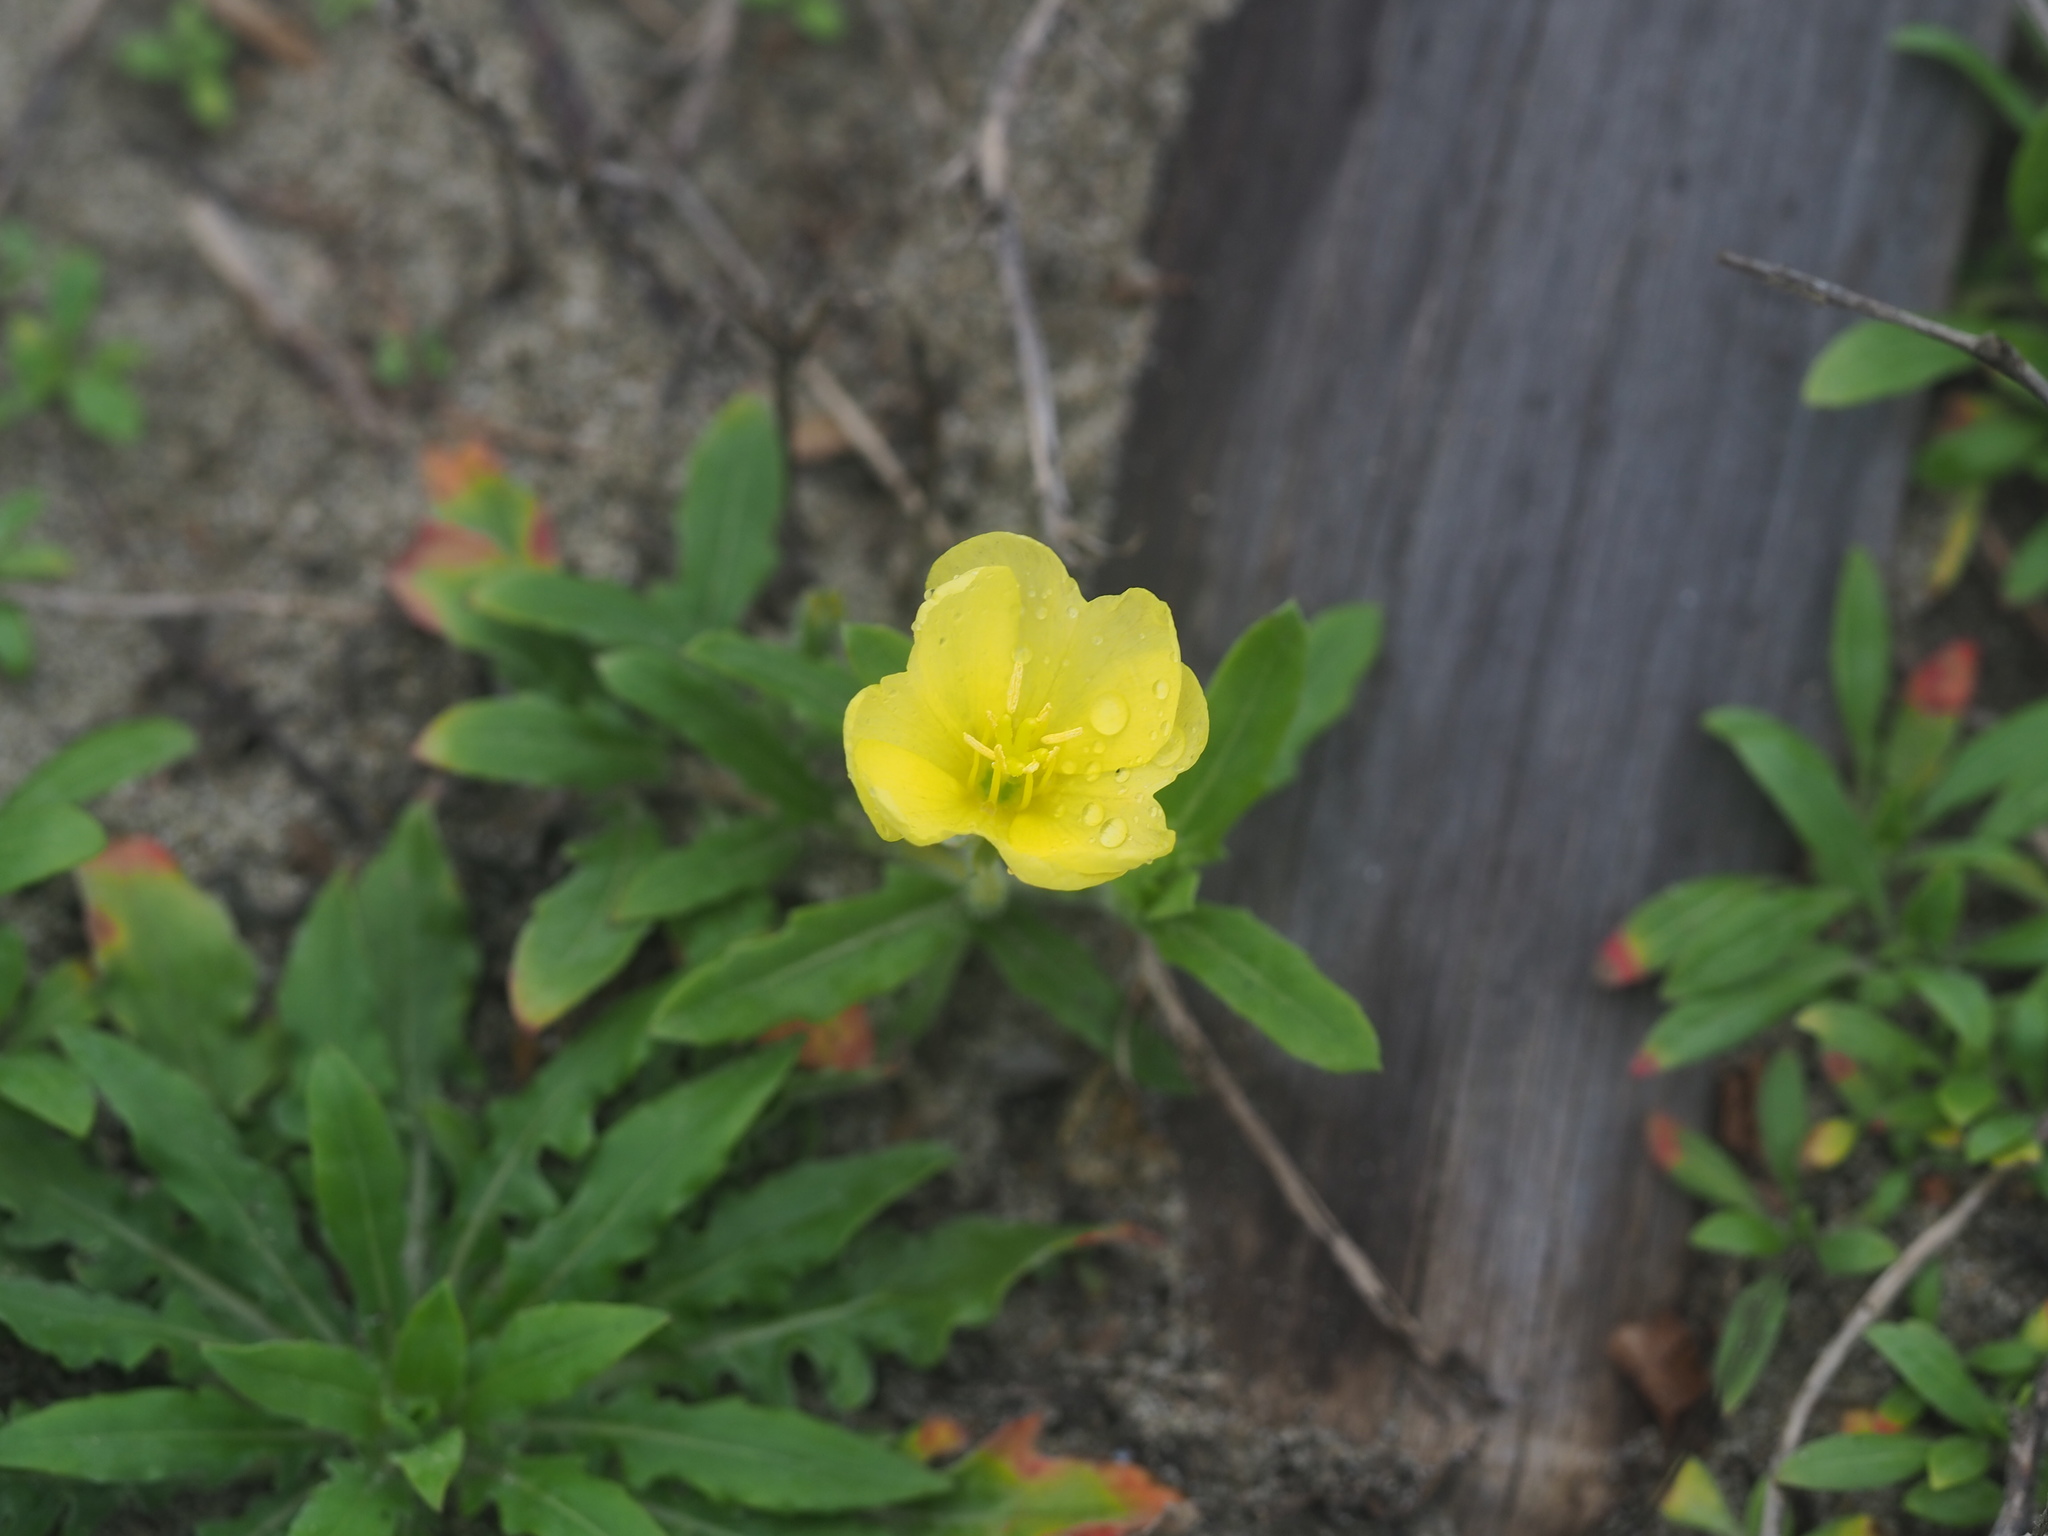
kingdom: Plantae
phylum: Tracheophyta
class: Magnoliopsida
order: Myrtales
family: Onagraceae
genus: Oenothera
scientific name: Oenothera laciniata
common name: Cut-leaved evening-primrose
